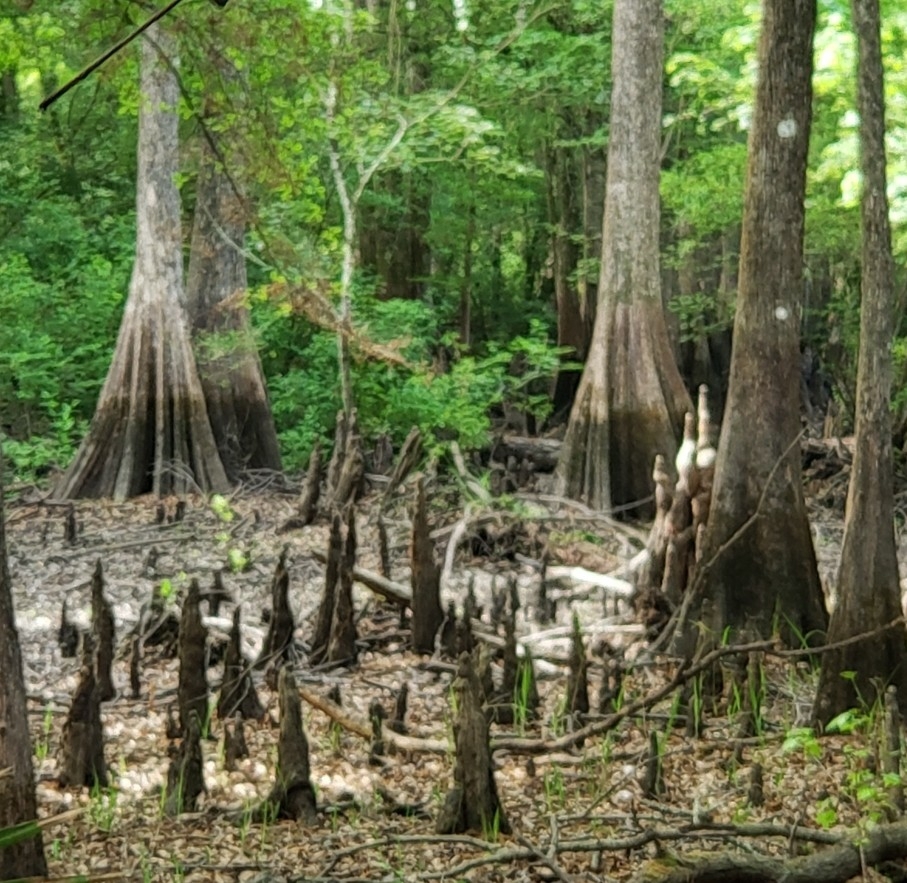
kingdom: Plantae
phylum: Tracheophyta
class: Pinopsida
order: Pinales
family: Cupressaceae
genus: Taxodium
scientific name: Taxodium distichum
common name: Bald cypress
